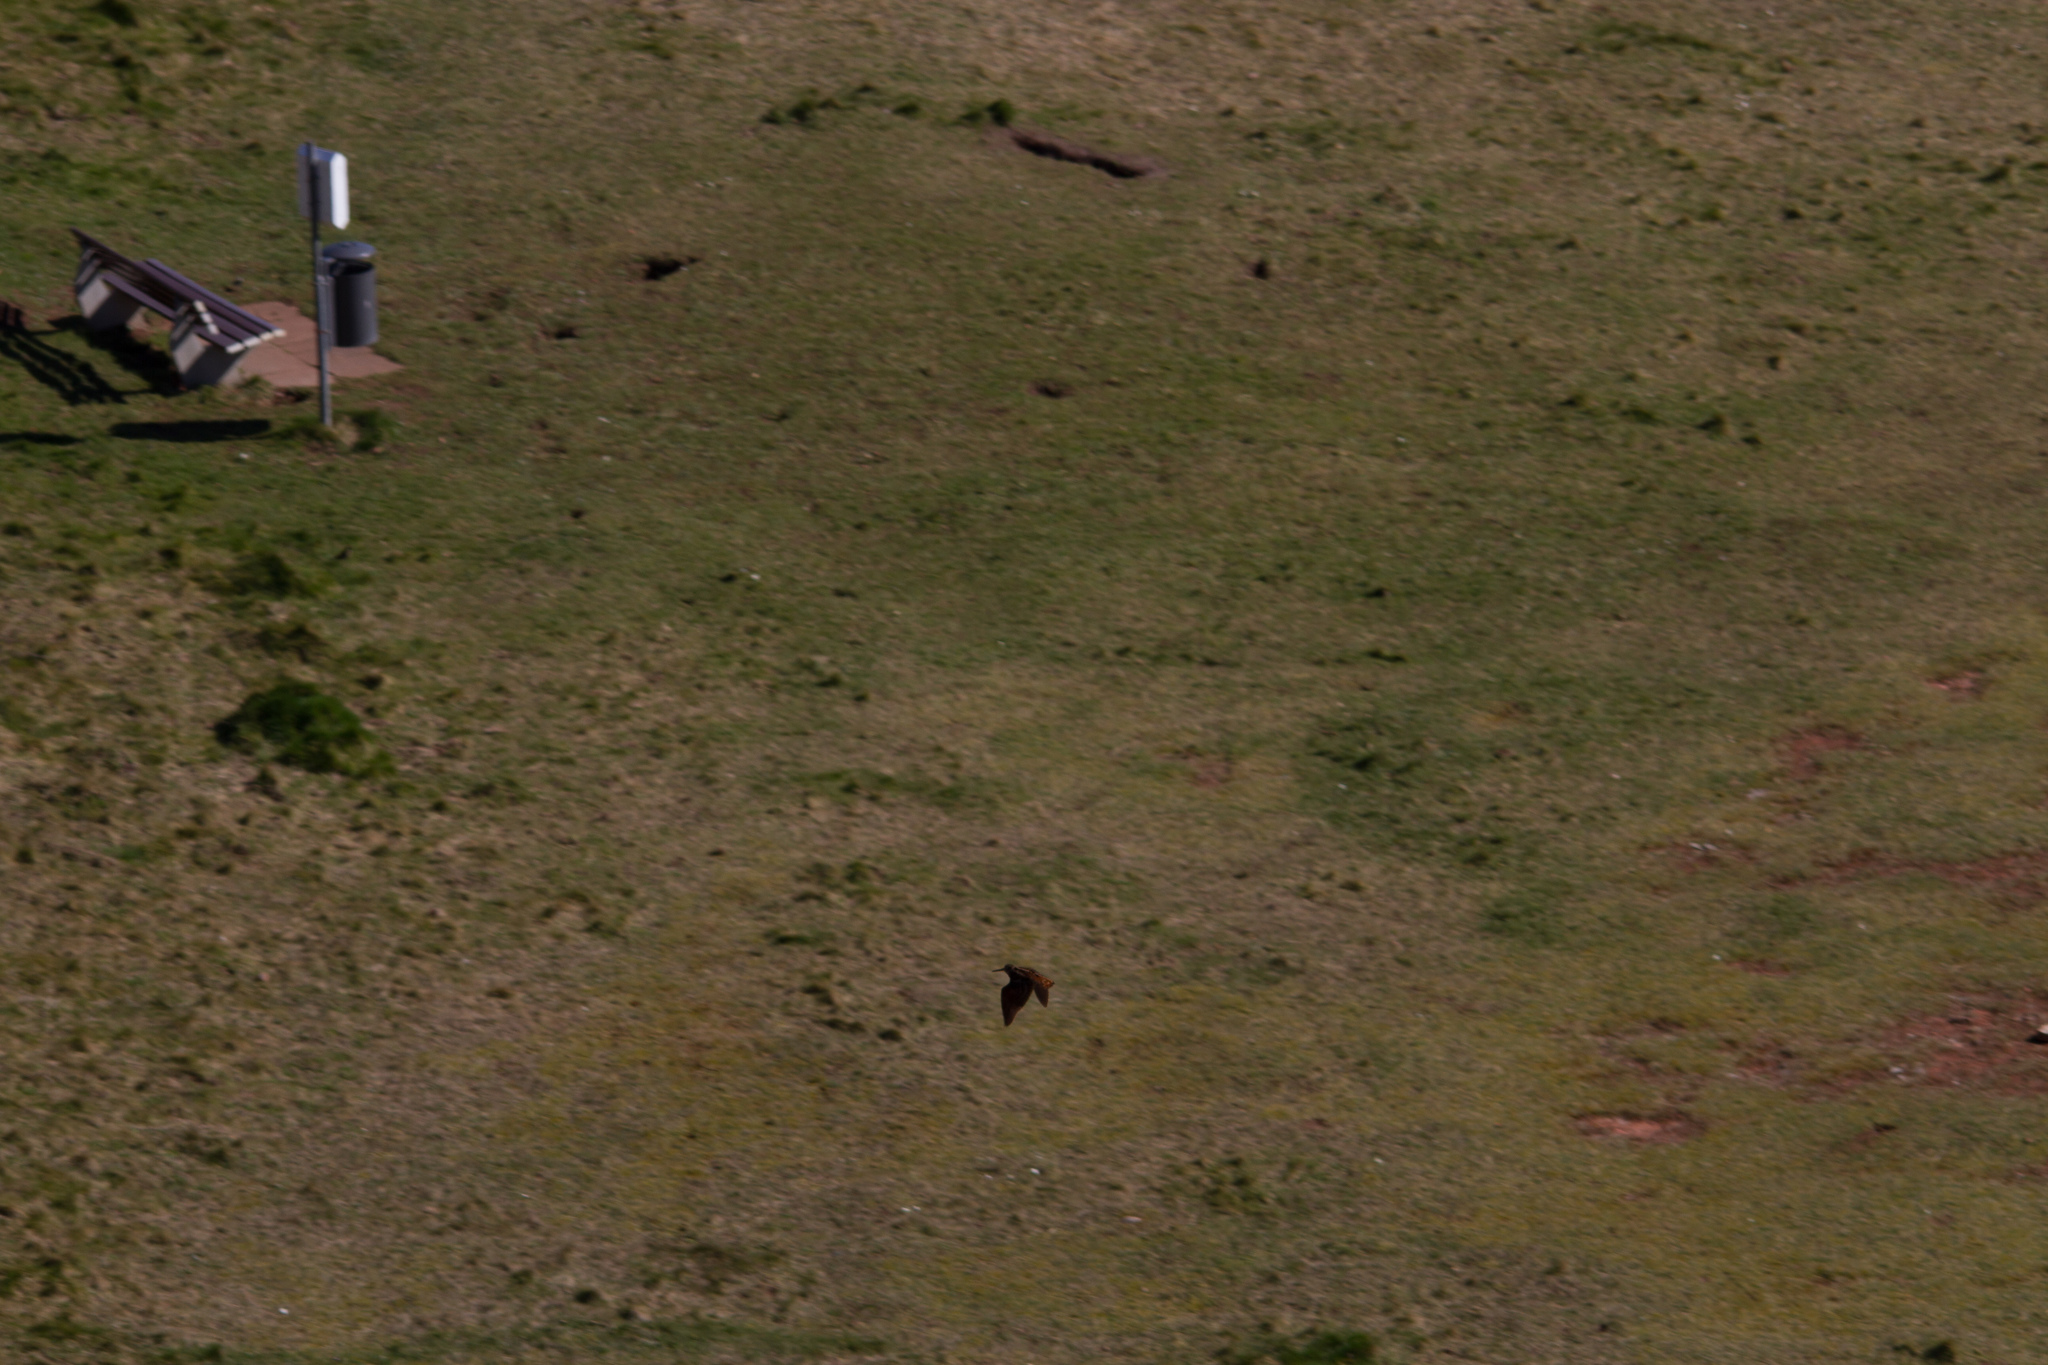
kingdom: Animalia
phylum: Chordata
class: Aves
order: Charadriiformes
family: Scolopacidae
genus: Scolopax
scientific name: Scolopax rusticola
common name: Eurasian woodcock
